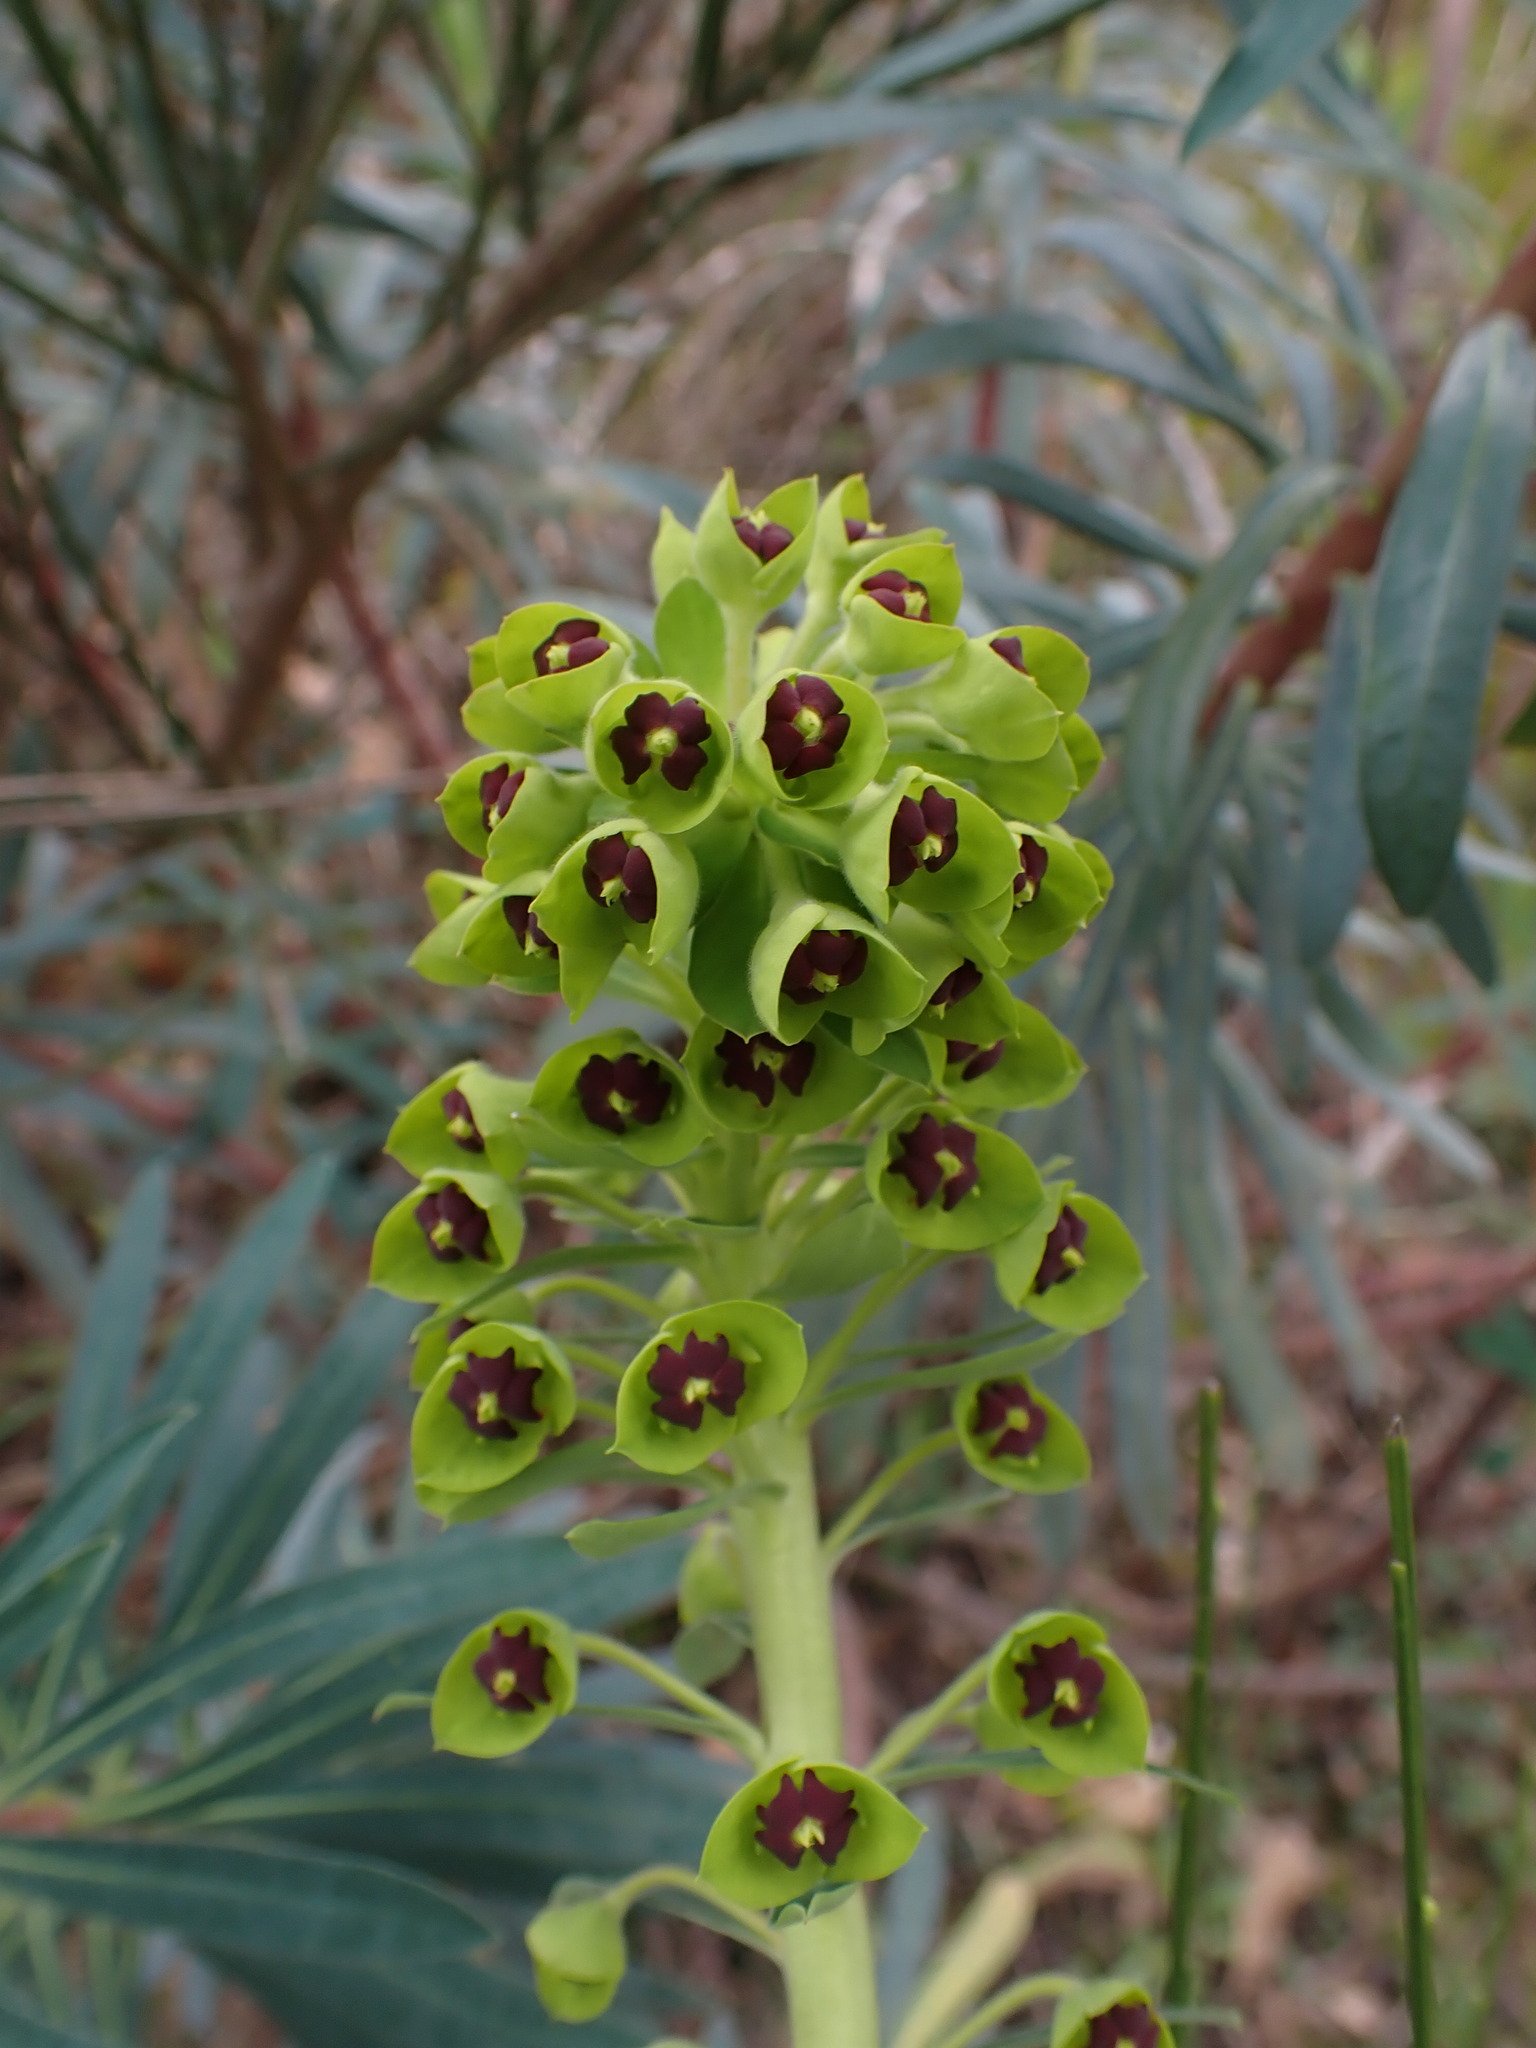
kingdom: Plantae
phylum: Tracheophyta
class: Magnoliopsida
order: Malpighiales
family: Euphorbiaceae
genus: Euphorbia
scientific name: Euphorbia characias
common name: Mediterranean spurge
